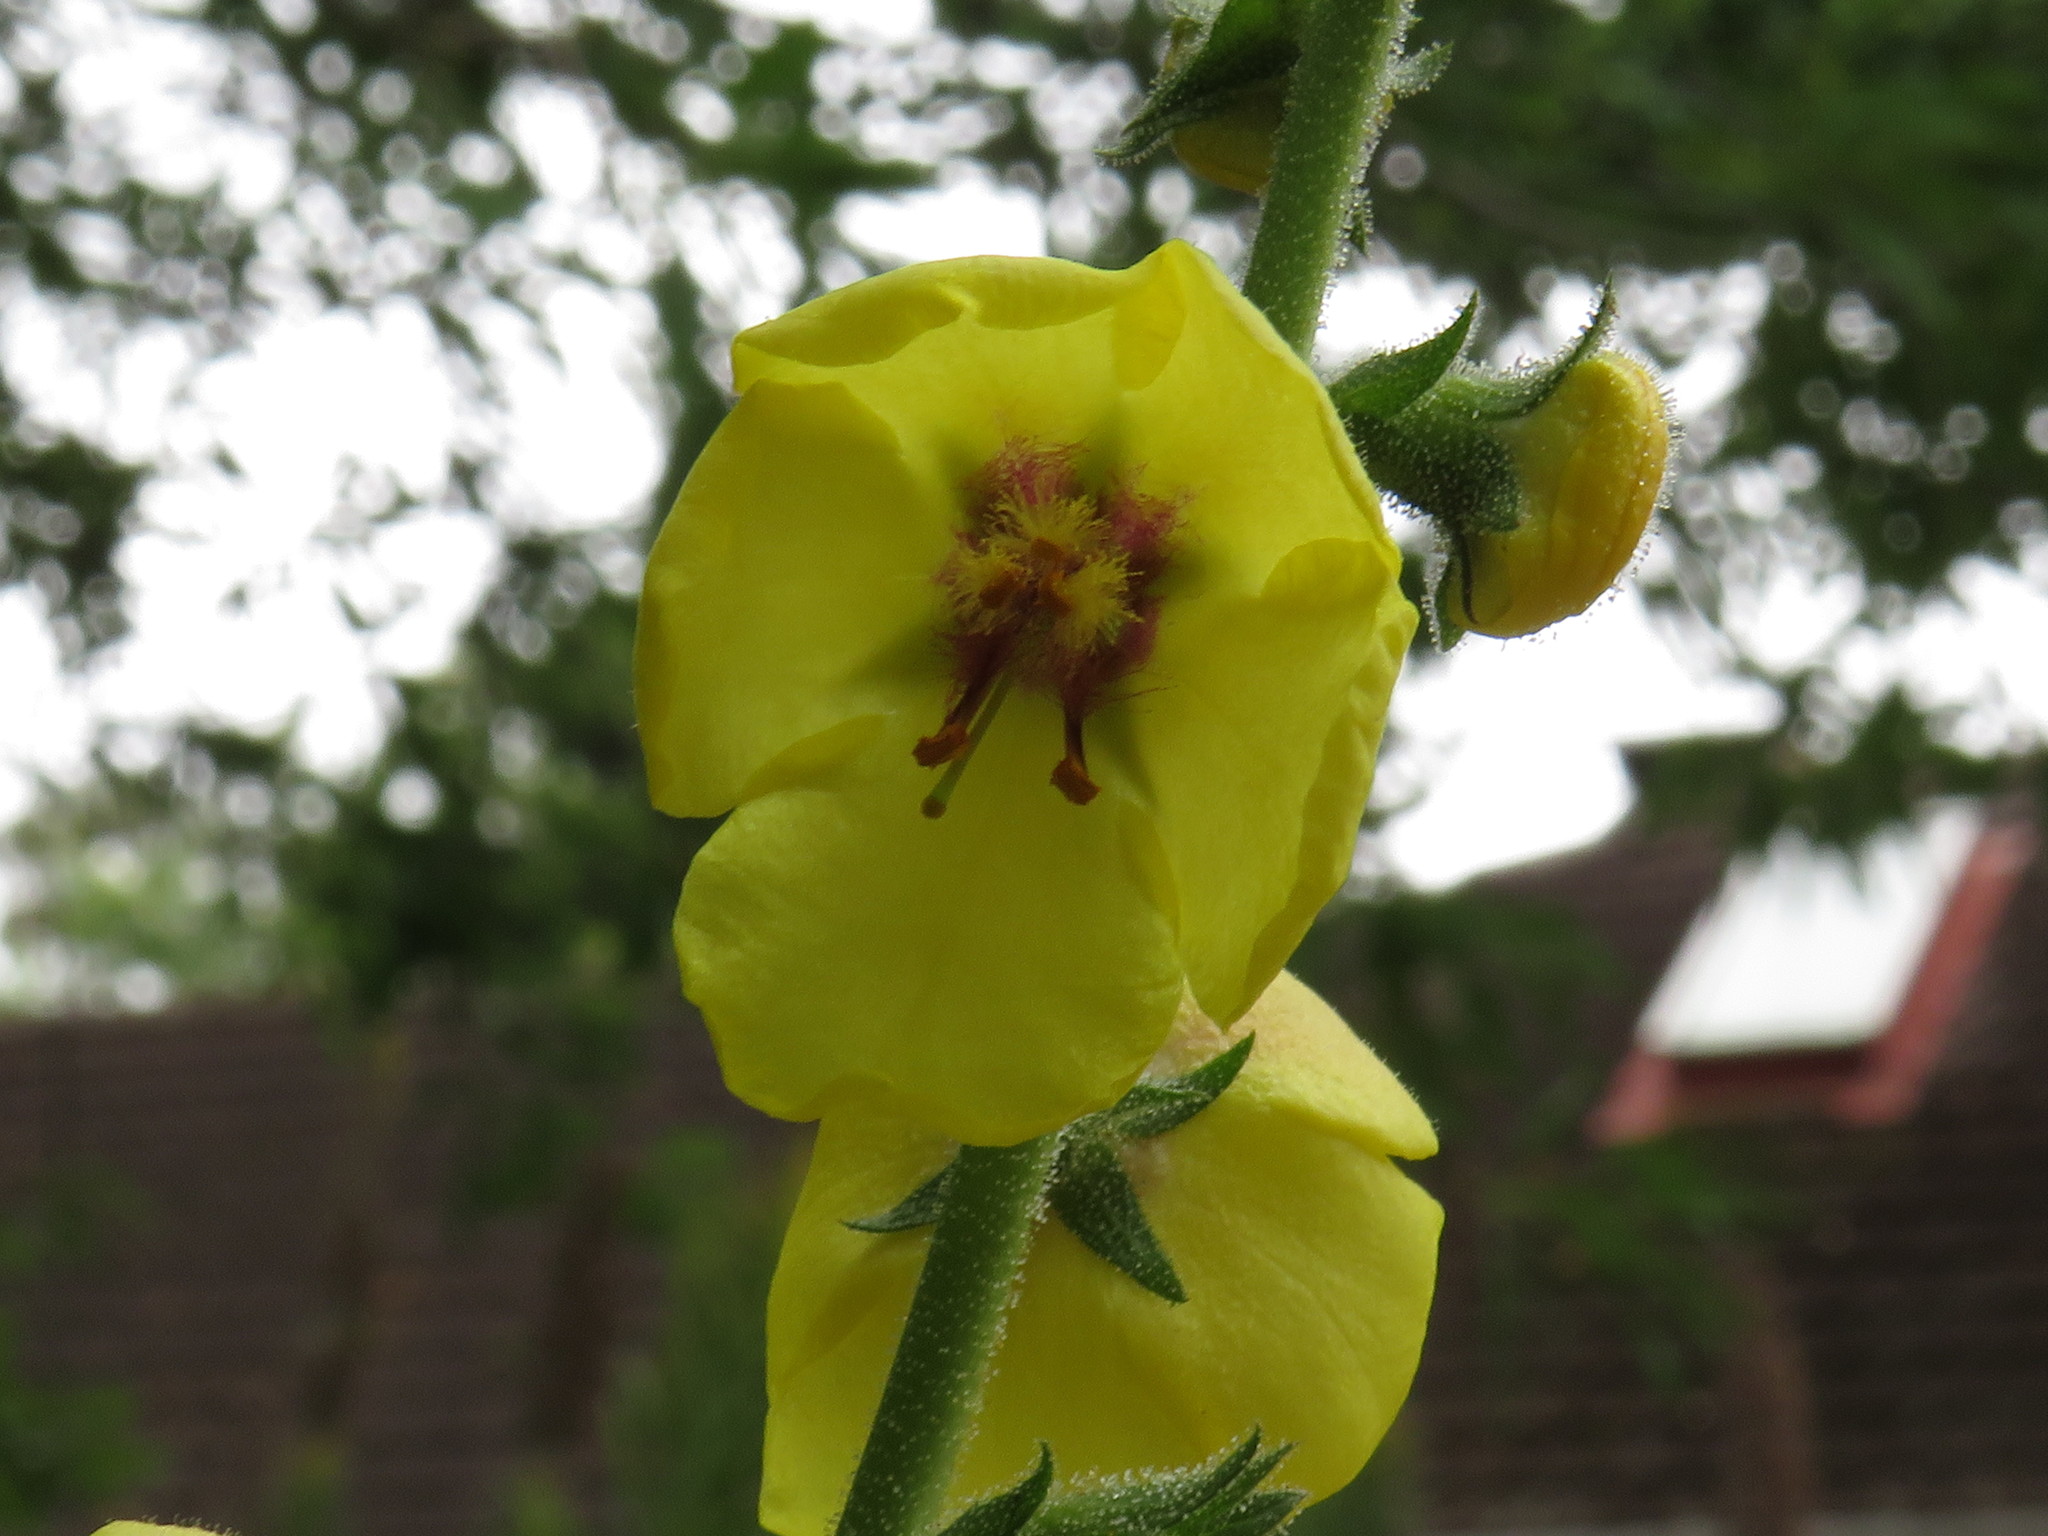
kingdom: Plantae
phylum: Tracheophyta
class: Magnoliopsida
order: Lamiales
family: Scrophulariaceae
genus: Verbascum
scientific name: Verbascum virgatum
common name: Twiggy mullein
